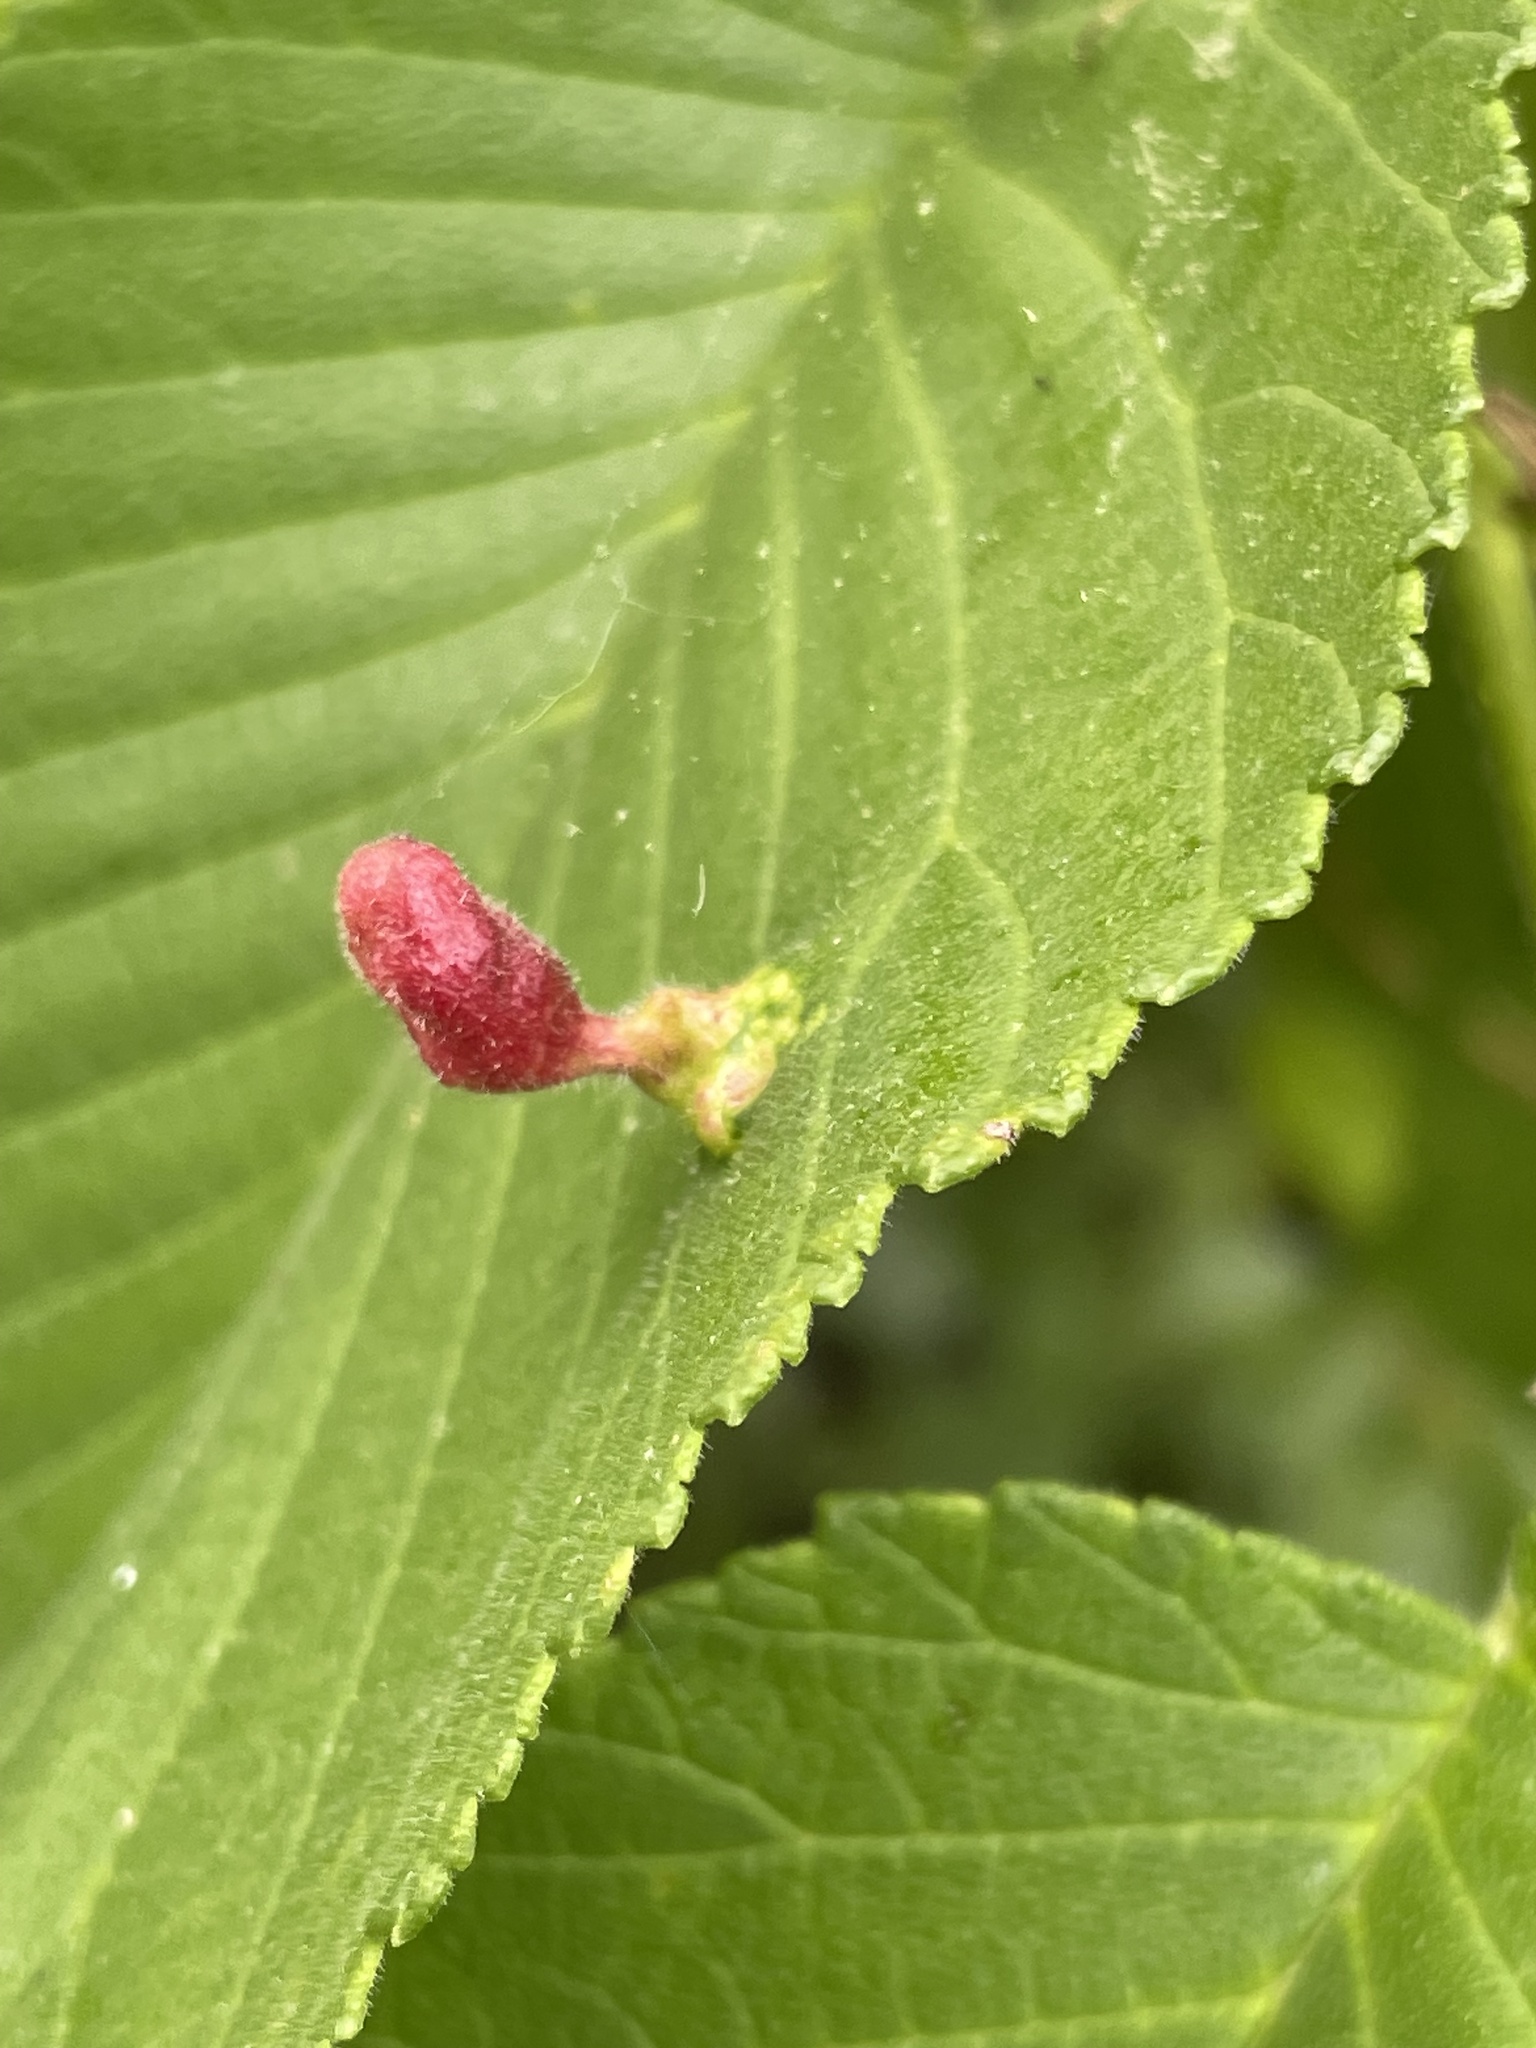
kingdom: Animalia
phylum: Arthropoda
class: Insecta
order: Hemiptera
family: Aphididae
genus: Tetraneura
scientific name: Tetraneura nigriabdominalis
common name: Aphid
